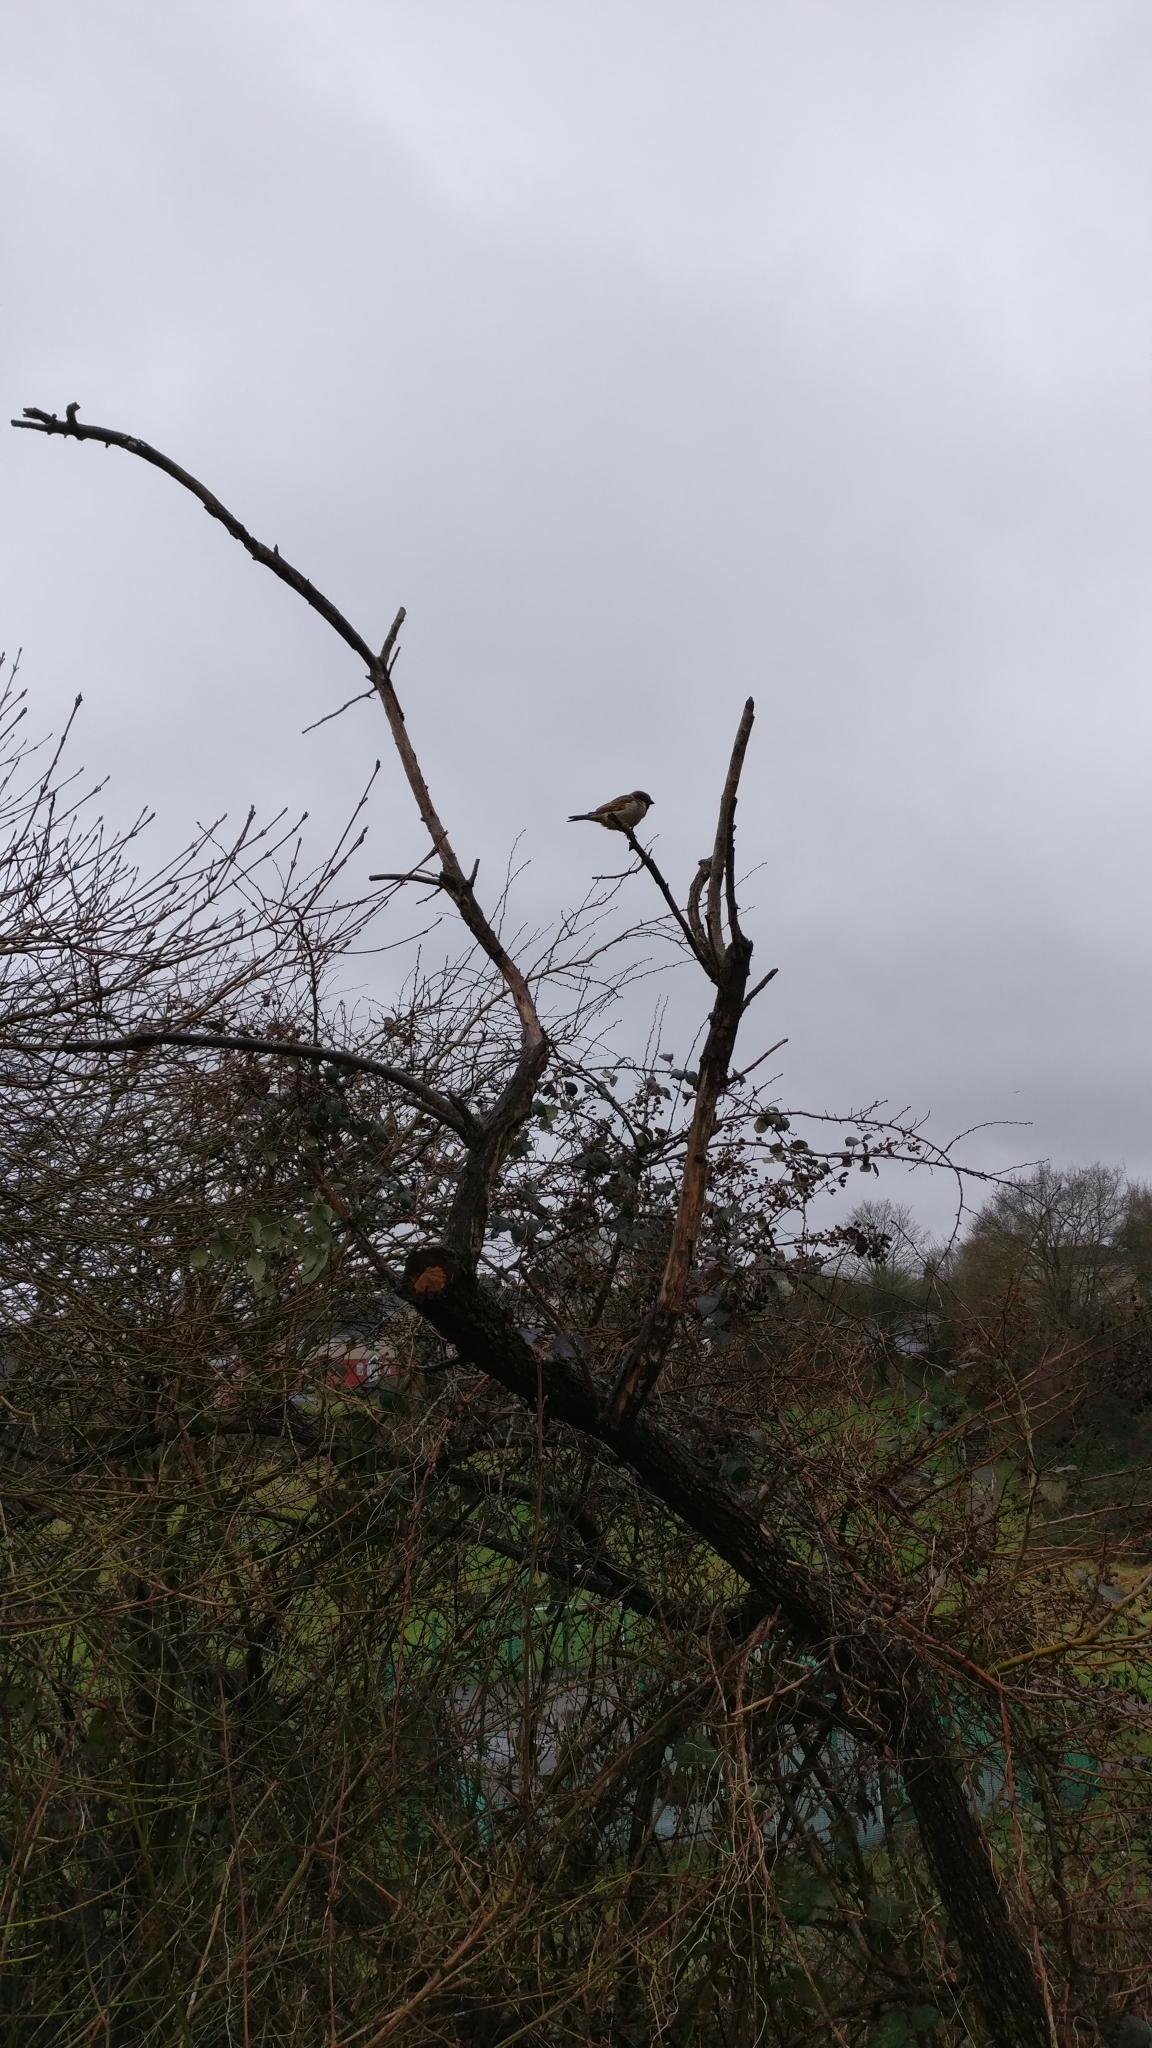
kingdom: Animalia
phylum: Chordata
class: Aves
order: Passeriformes
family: Passeridae
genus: Passer
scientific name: Passer domesticus
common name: House sparrow
